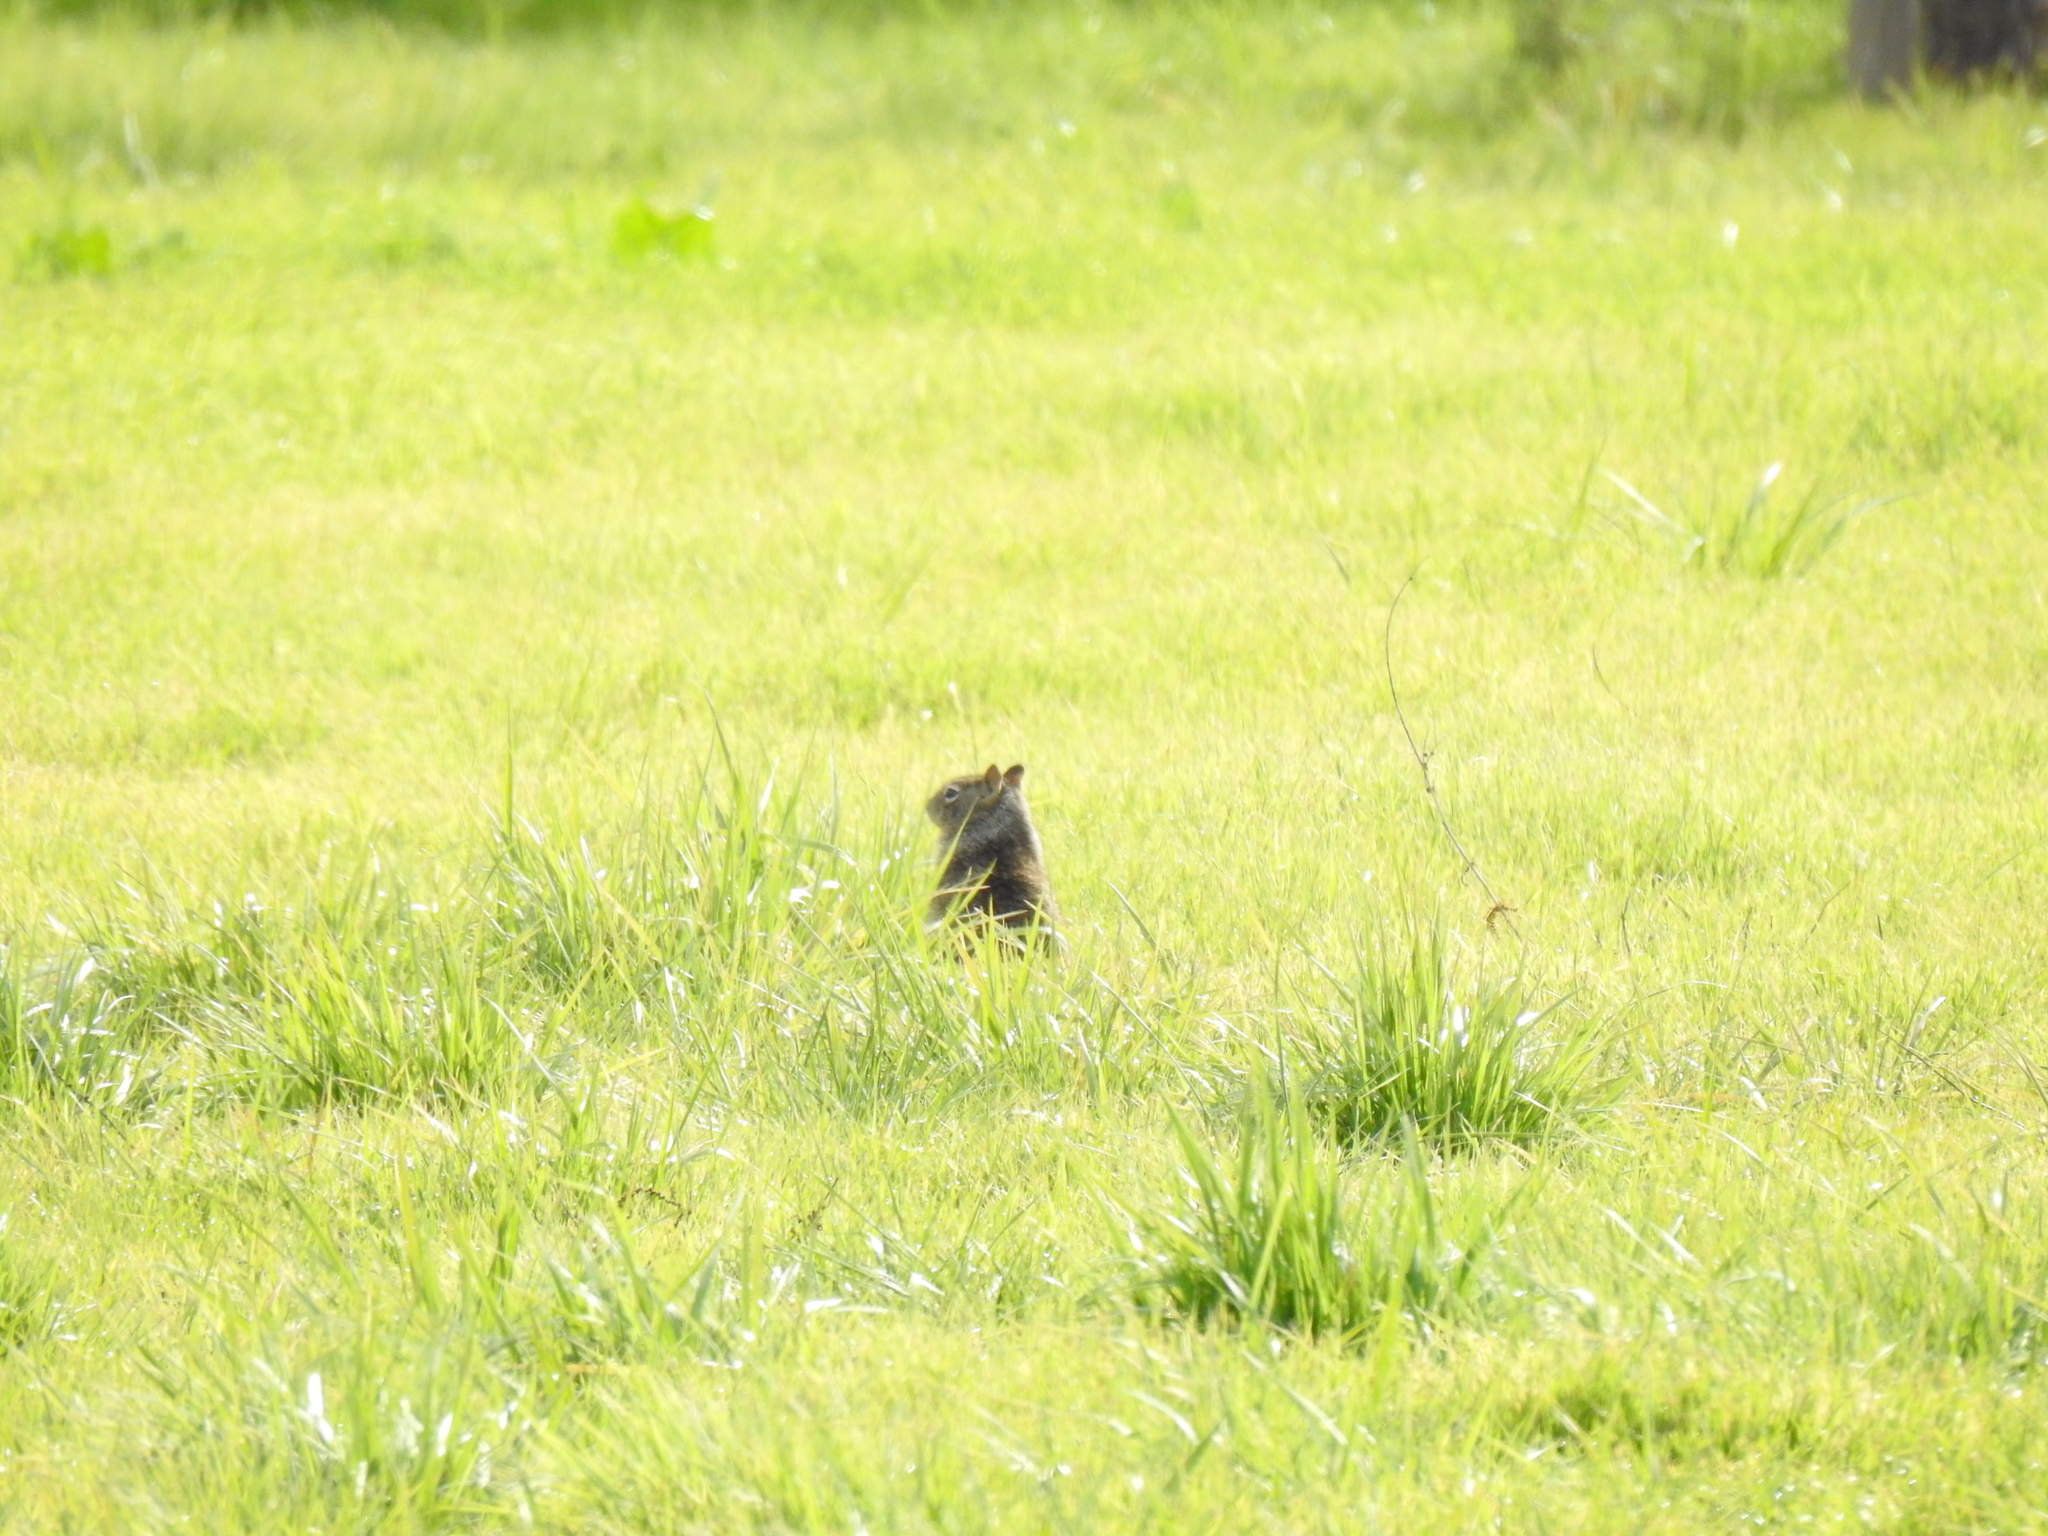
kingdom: Animalia
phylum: Chordata
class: Mammalia
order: Rodentia
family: Sciuridae
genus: Otospermophilus
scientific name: Otospermophilus beecheyi
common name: California ground squirrel
